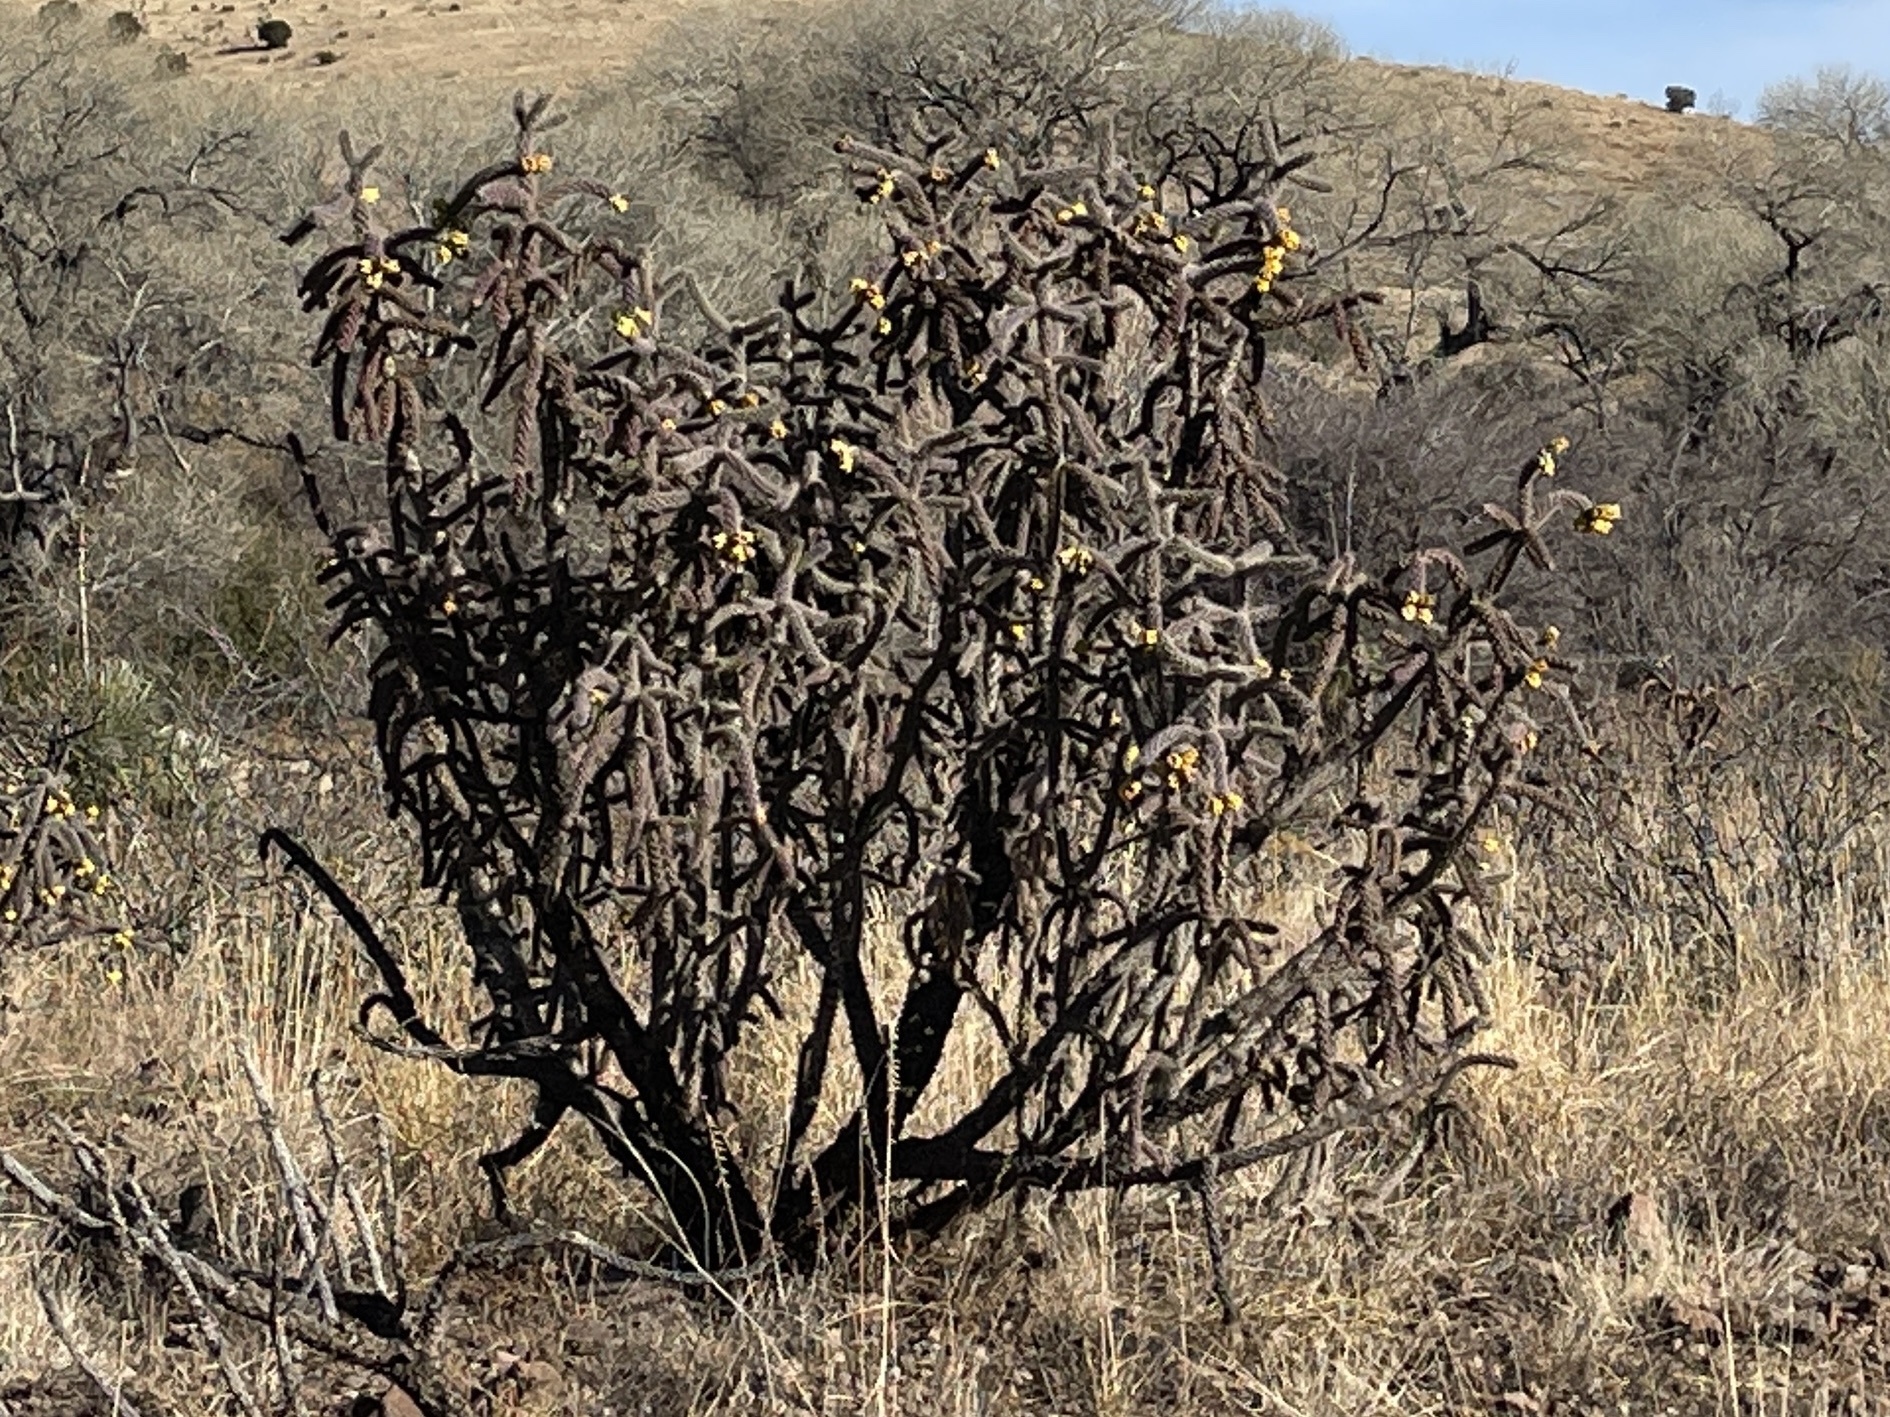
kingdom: Plantae
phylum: Tracheophyta
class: Magnoliopsida
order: Caryophyllales
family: Cactaceae
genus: Cylindropuntia
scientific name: Cylindropuntia imbricata
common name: Candelabrum cactus
